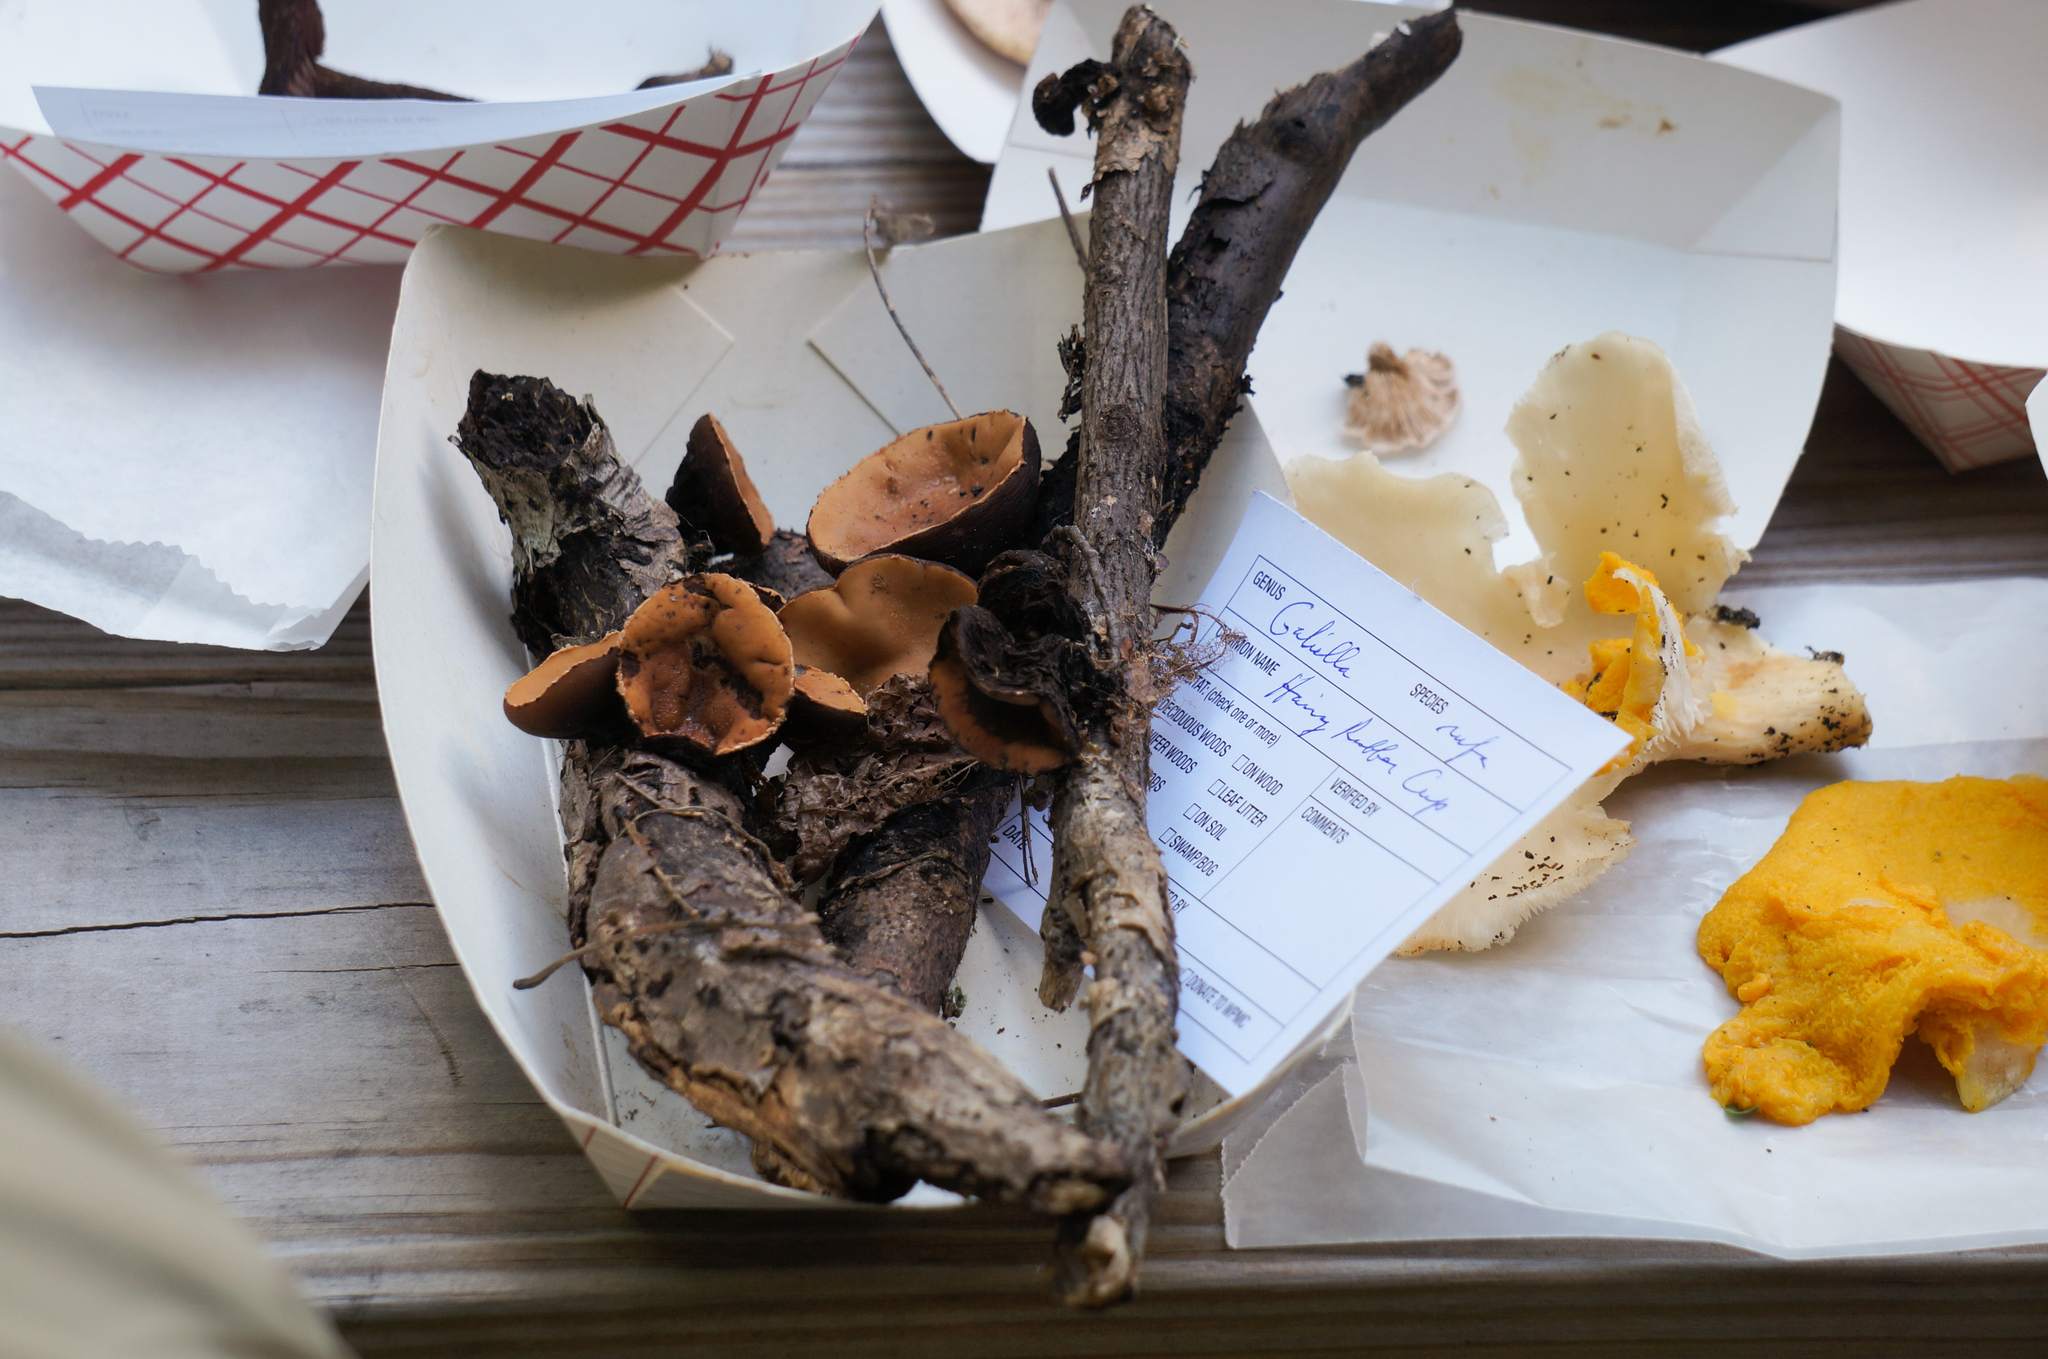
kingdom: Fungi
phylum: Ascomycota
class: Pezizomycetes
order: Pezizales
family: Sarcosomataceae
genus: Galiella
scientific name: Galiella rufa
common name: Hairy rubber cup
